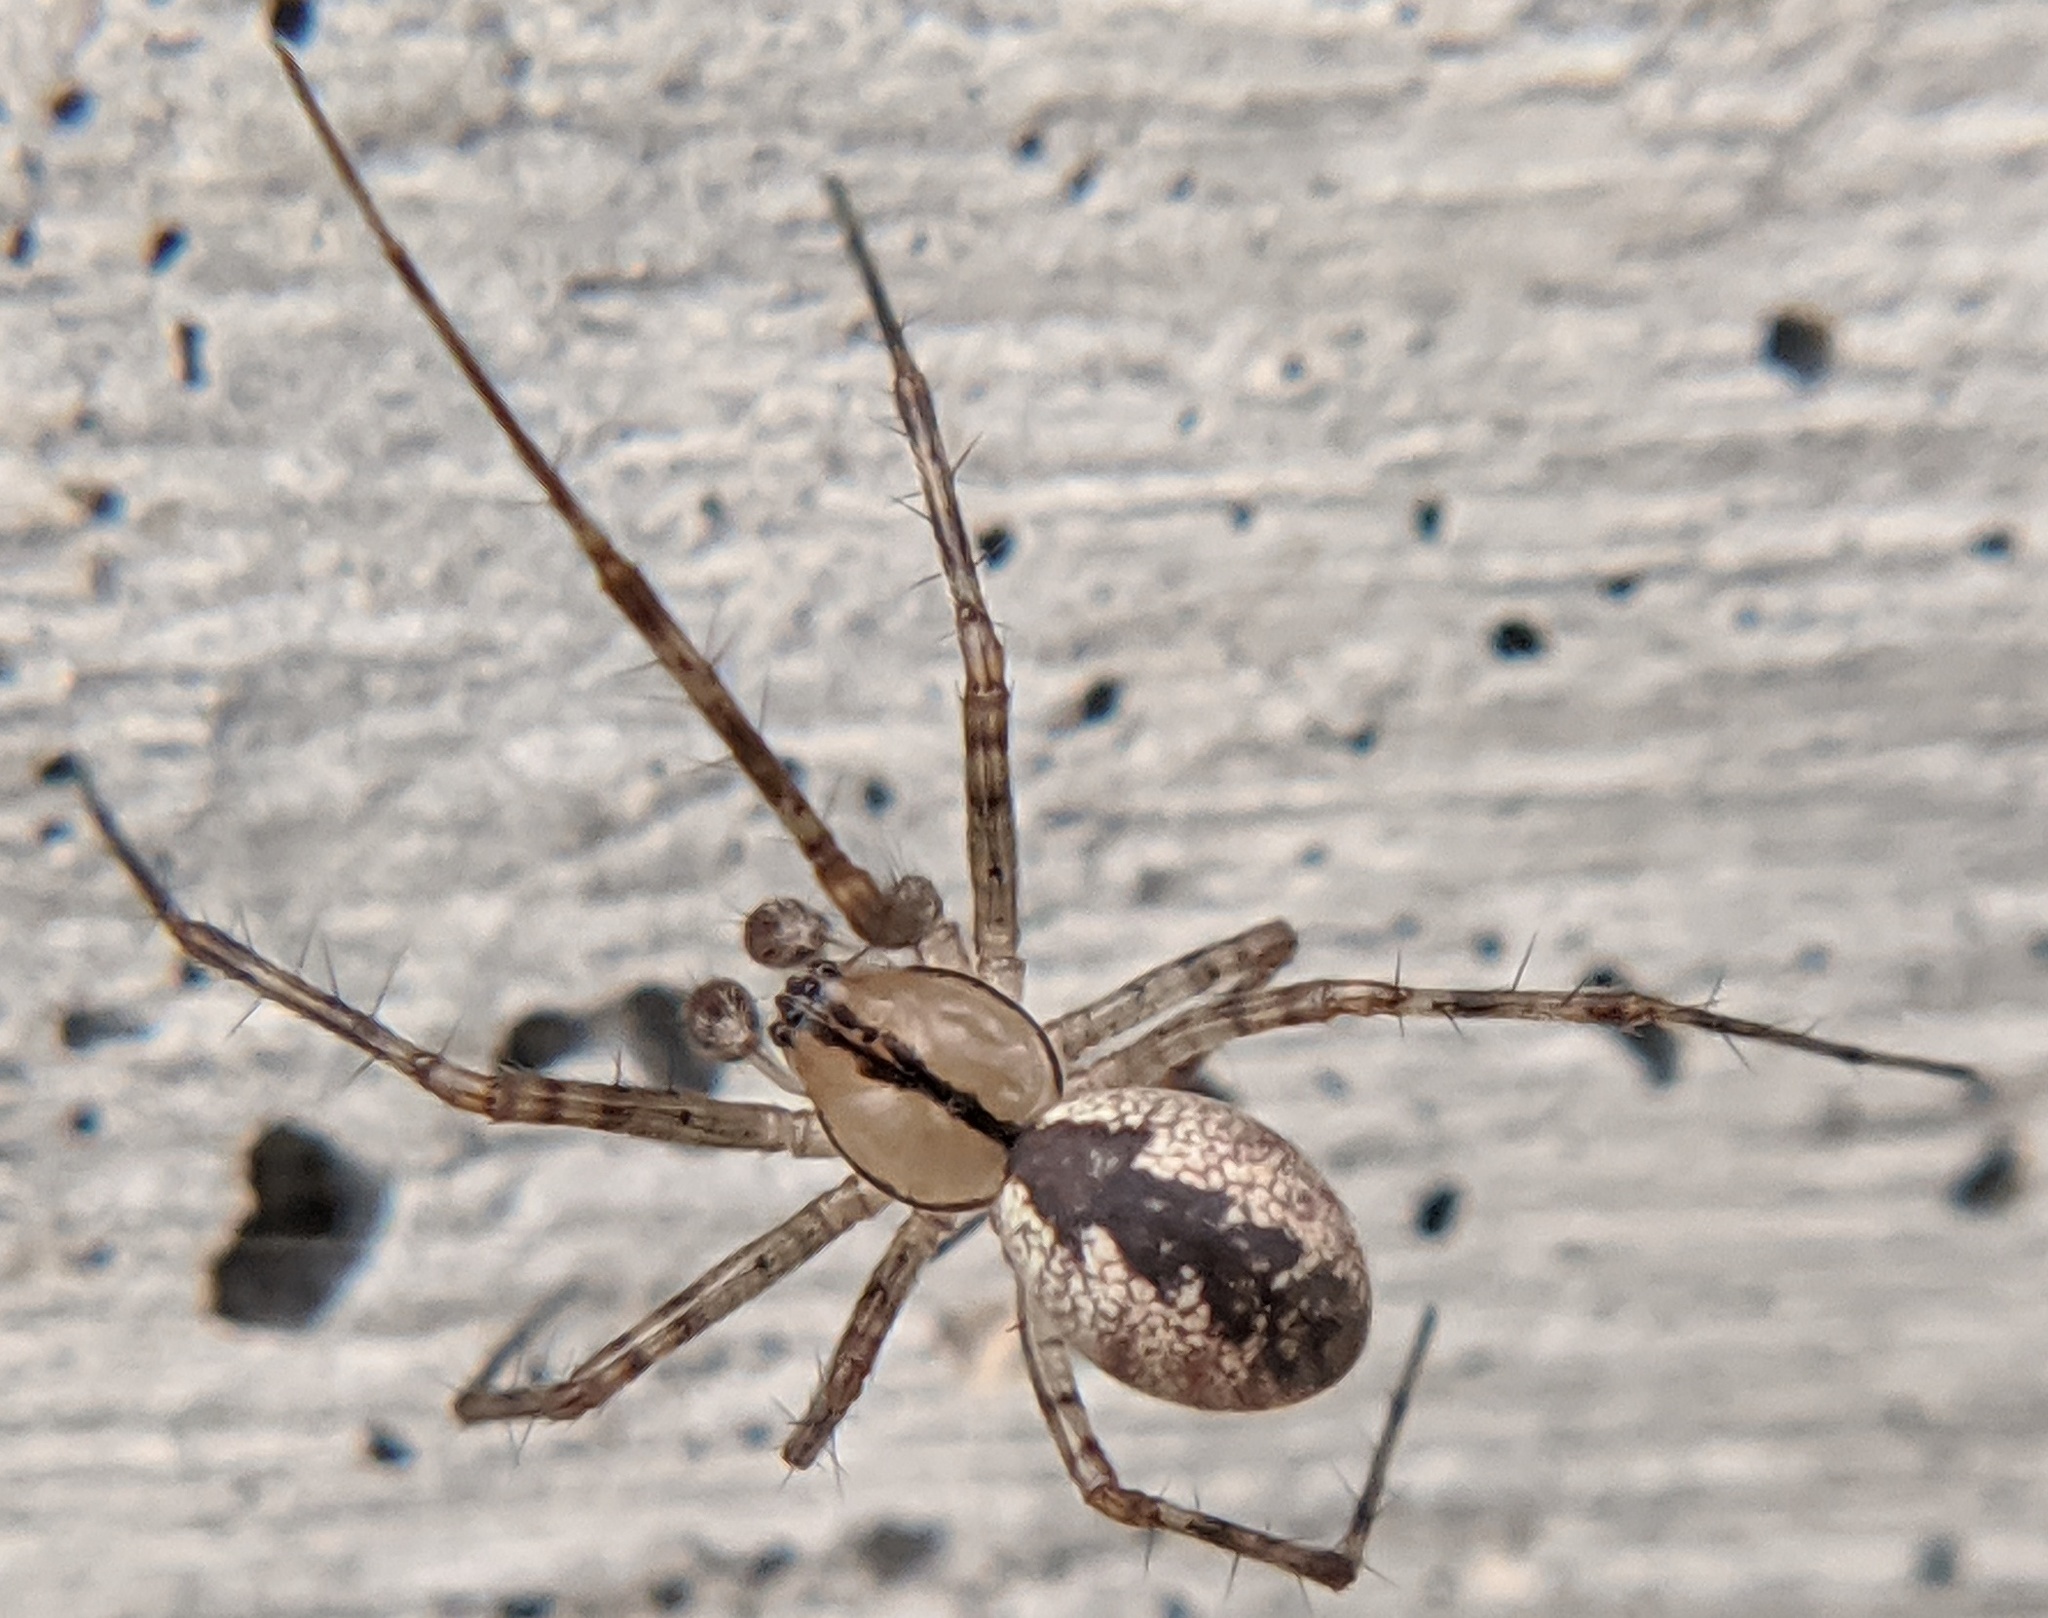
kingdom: Animalia
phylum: Arthropoda
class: Arachnida
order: Araneae
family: Linyphiidae
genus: Pityohyphantes
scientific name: Pityohyphantes costatus
